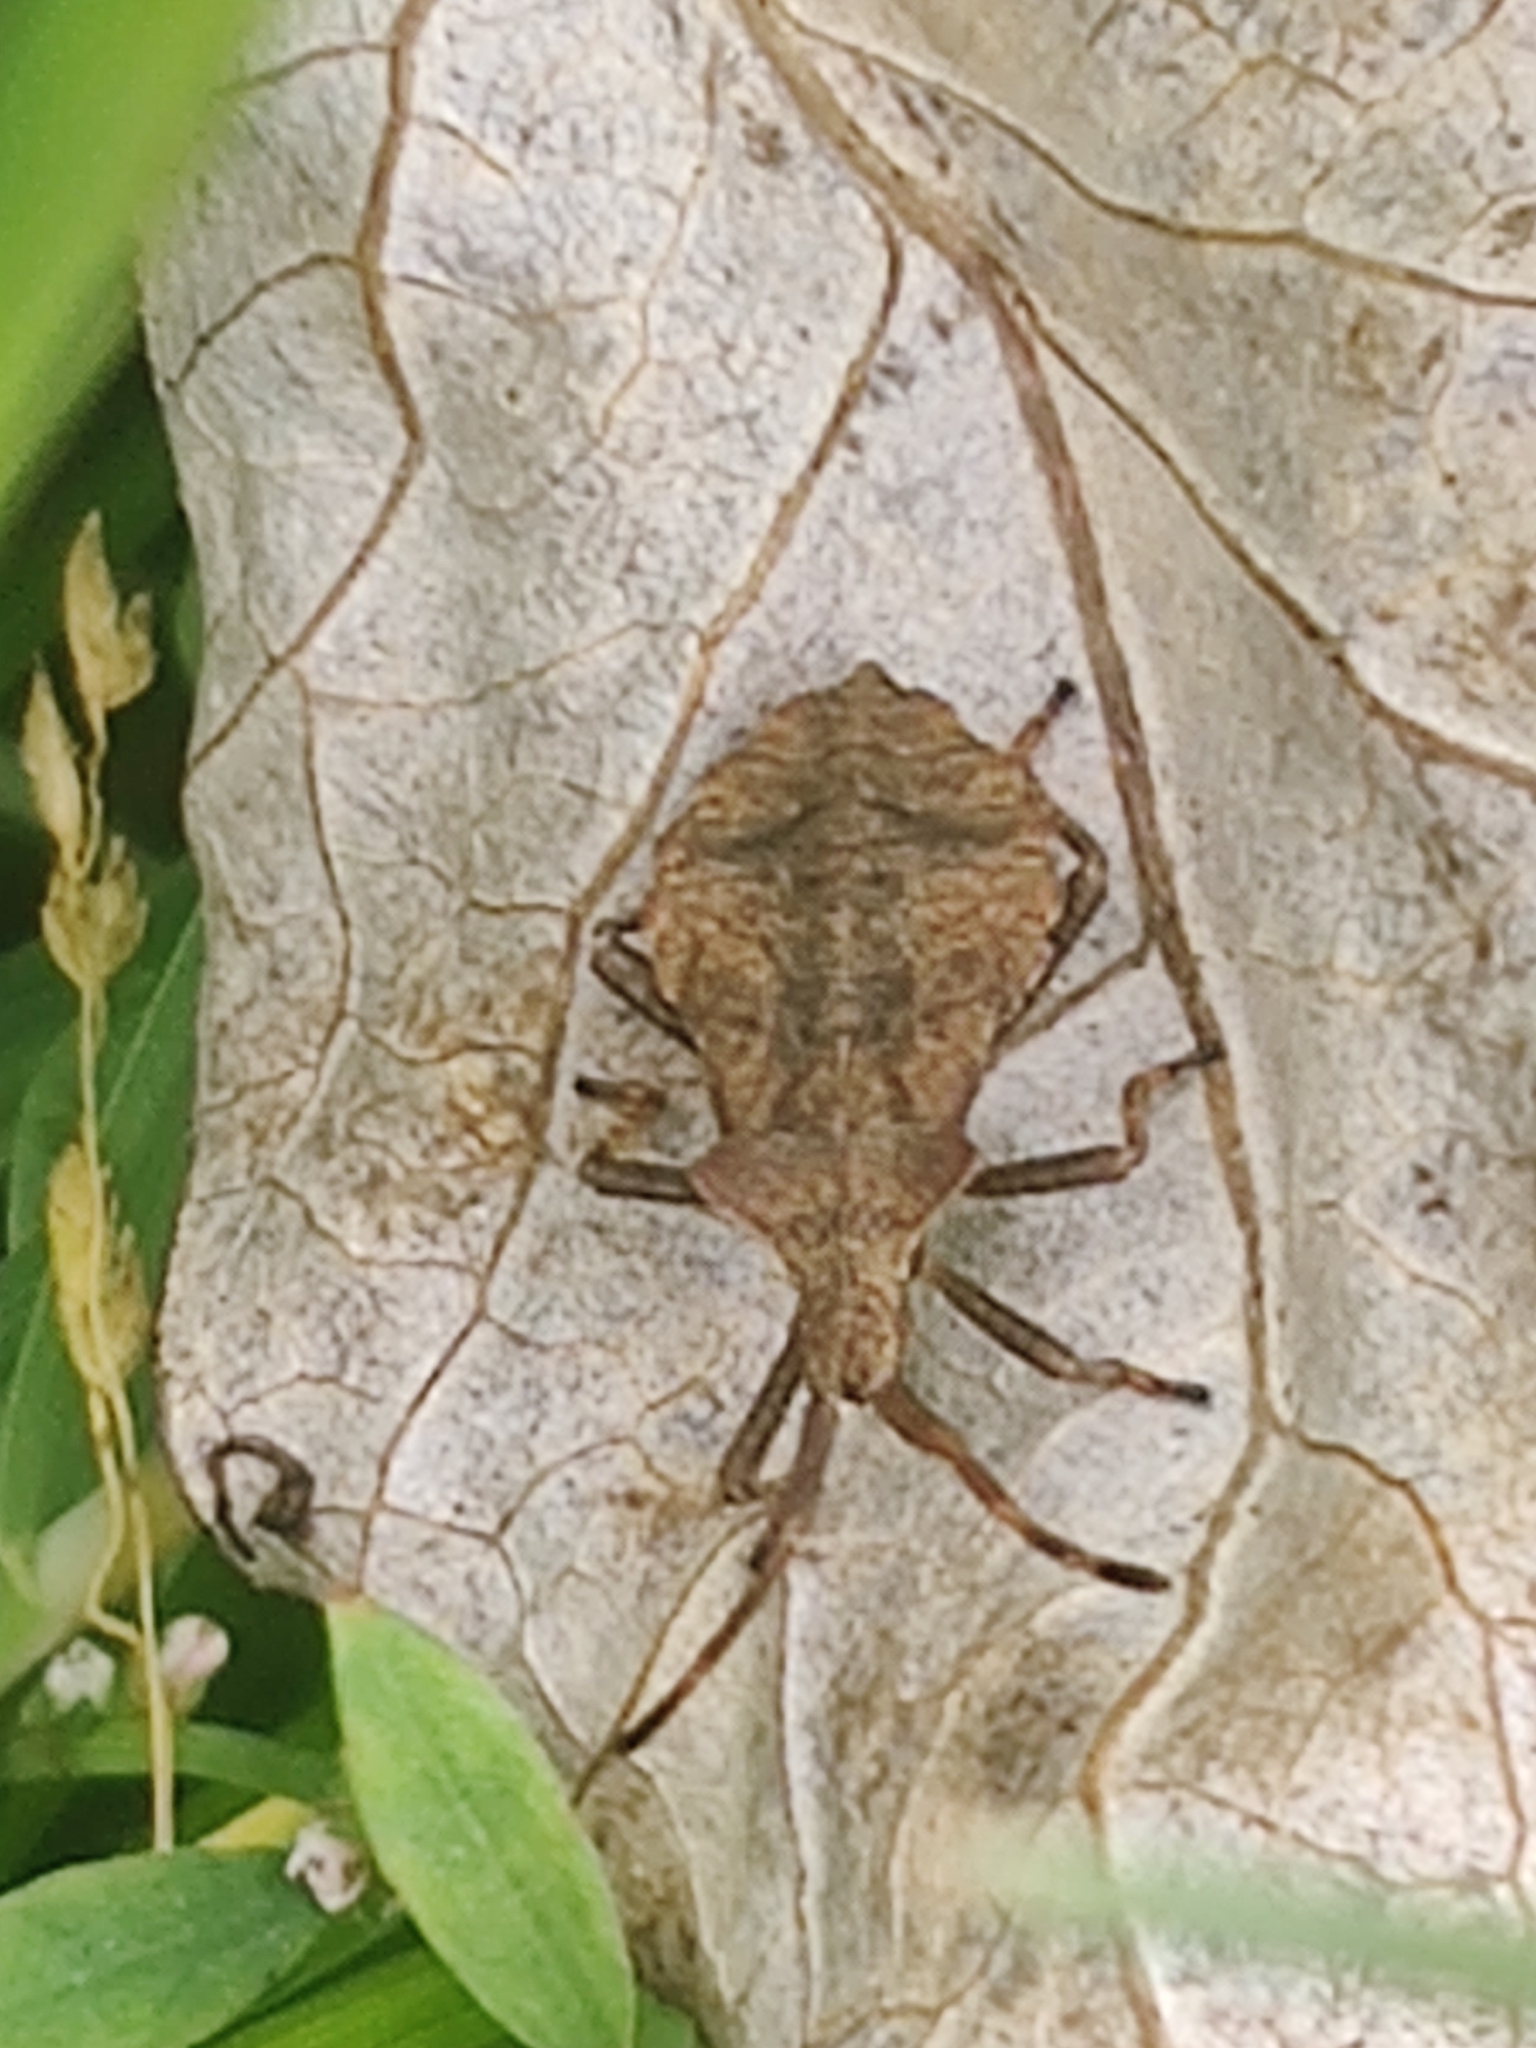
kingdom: Animalia
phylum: Arthropoda
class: Insecta
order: Hemiptera
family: Coreidae
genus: Coreus
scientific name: Coreus marginatus
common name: Dock bug
